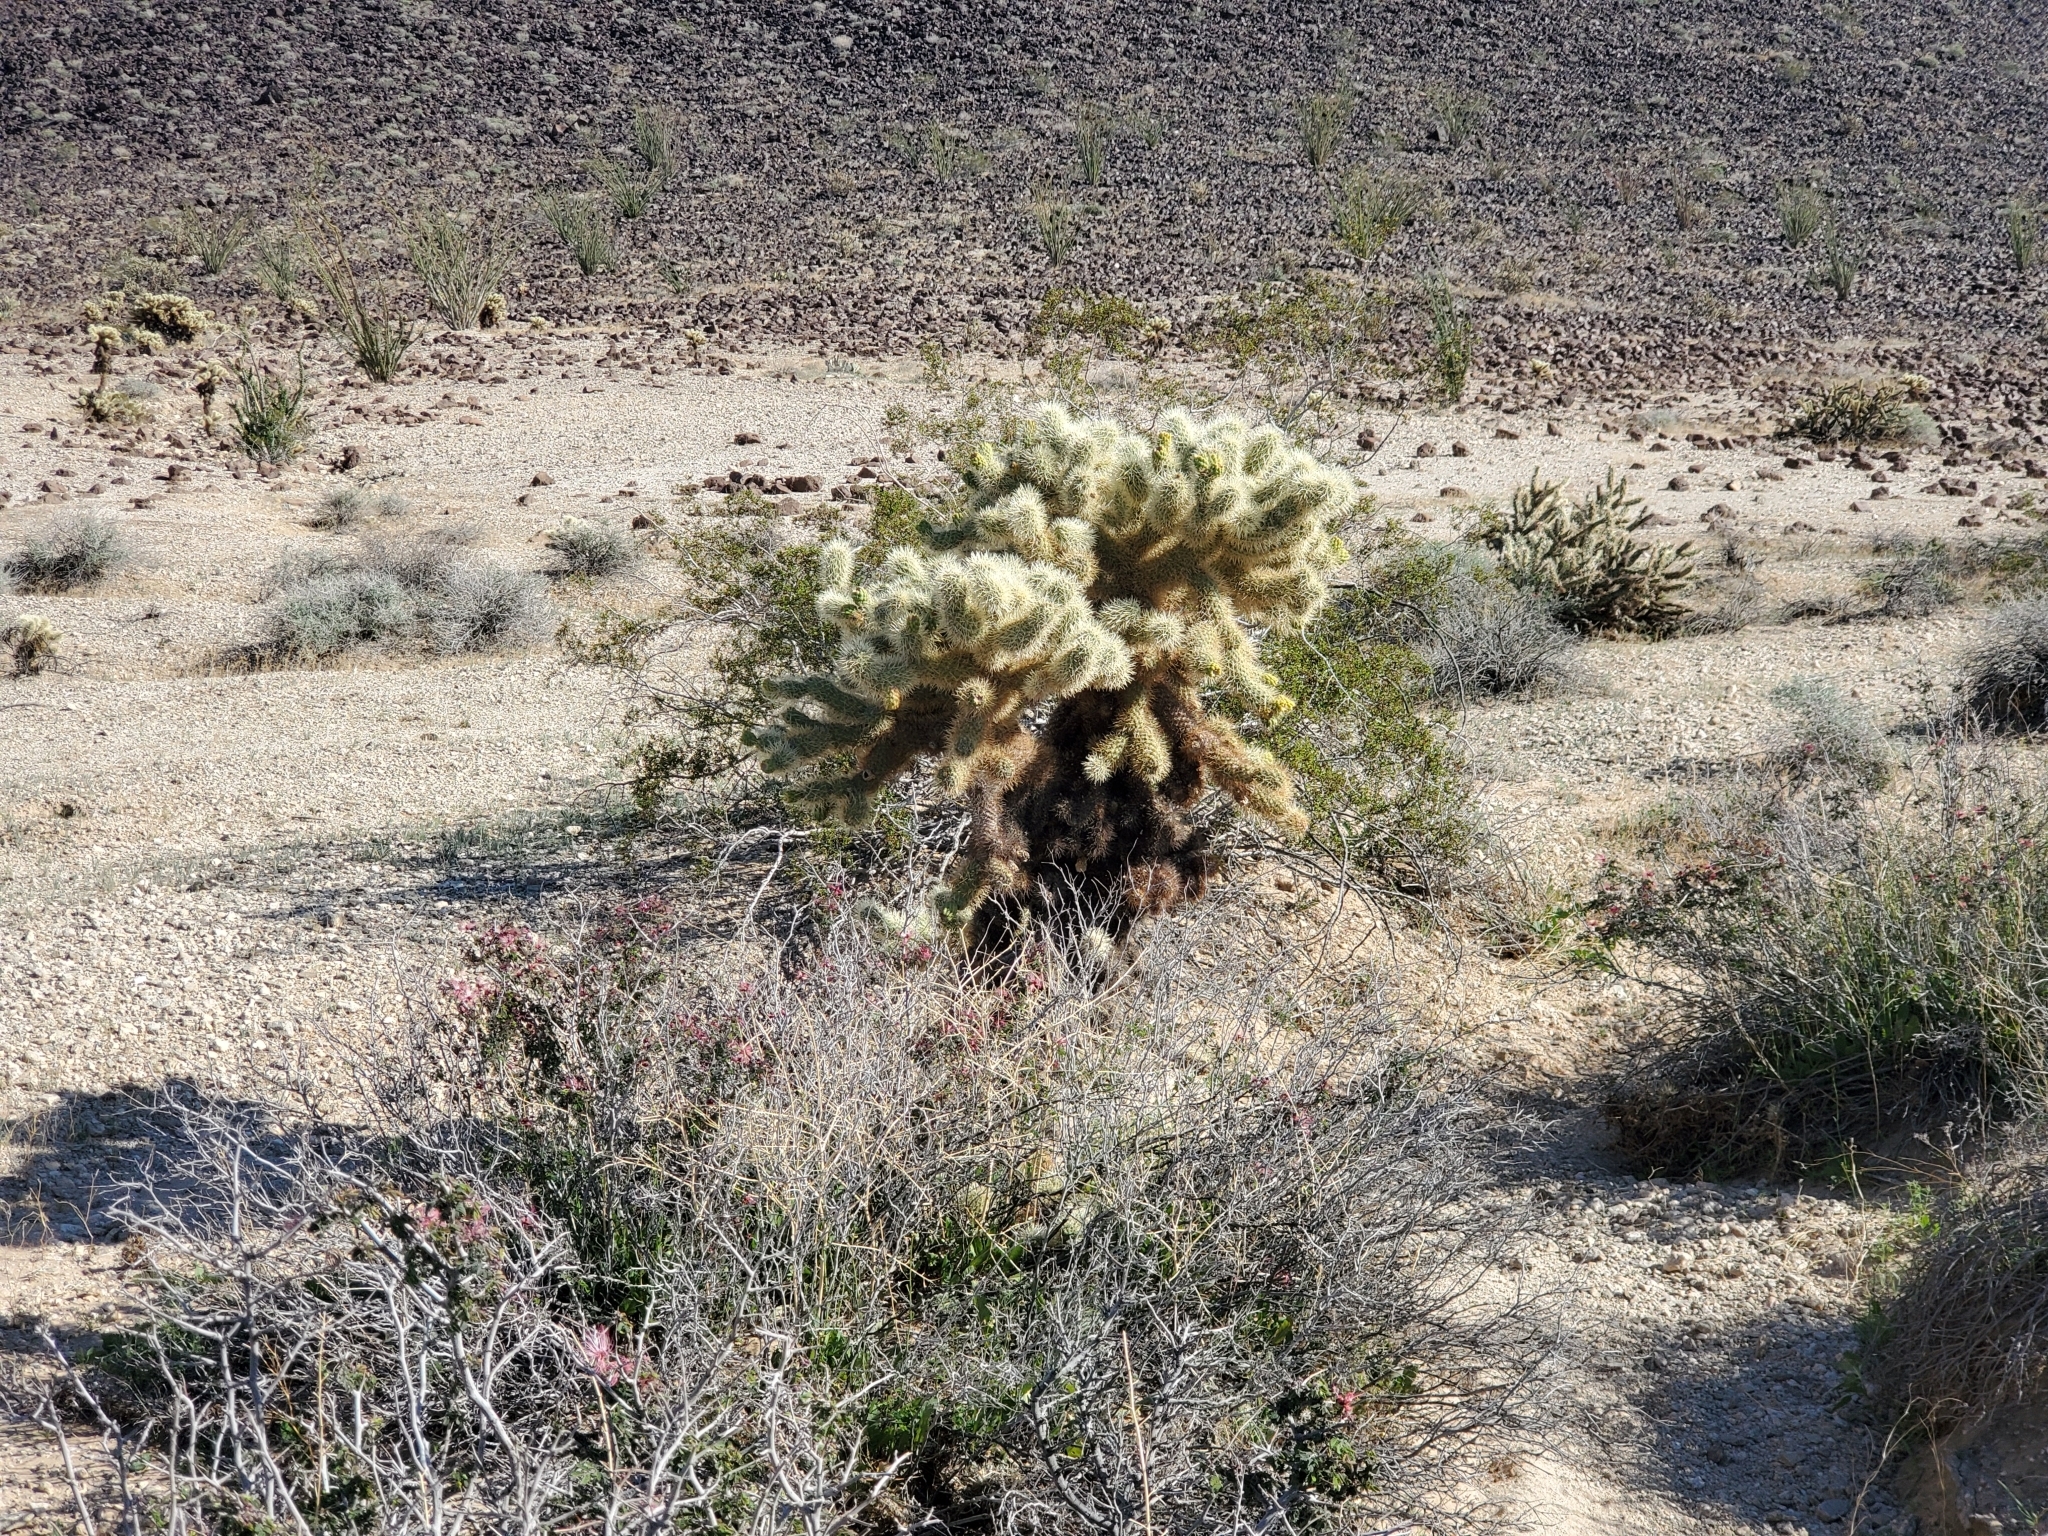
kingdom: Plantae
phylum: Tracheophyta
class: Magnoliopsida
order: Caryophyllales
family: Cactaceae
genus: Cylindropuntia
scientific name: Cylindropuntia fosbergii
